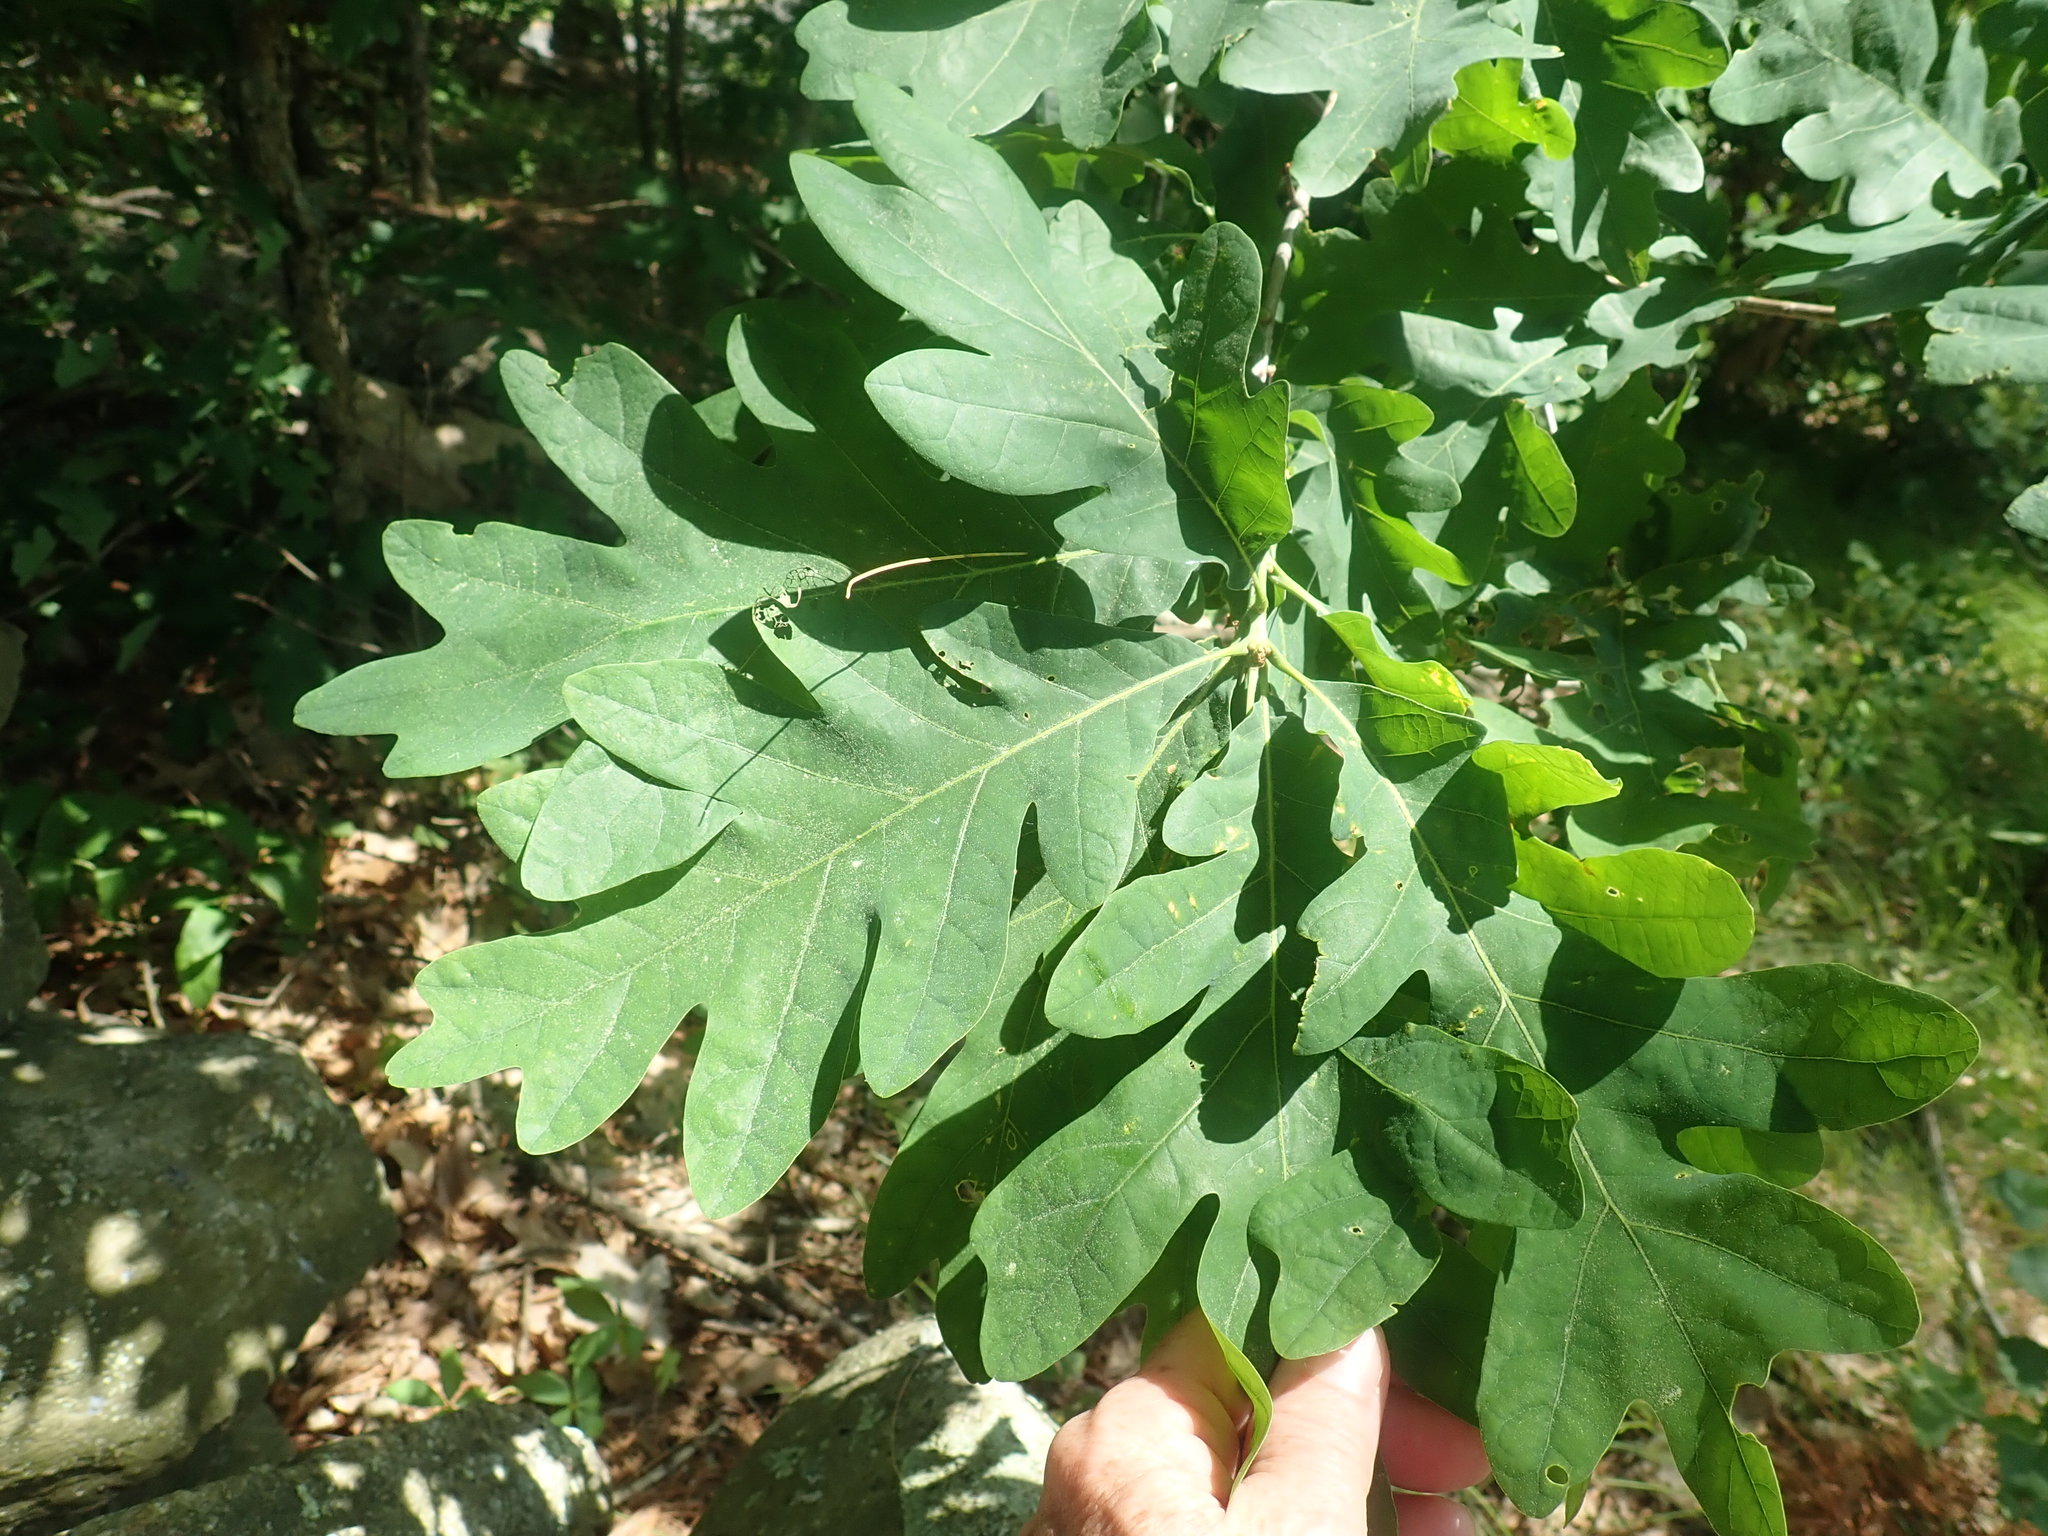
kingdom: Plantae
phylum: Tracheophyta
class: Magnoliopsida
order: Fagales
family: Fagaceae
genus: Quercus
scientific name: Quercus alba
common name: White oak
